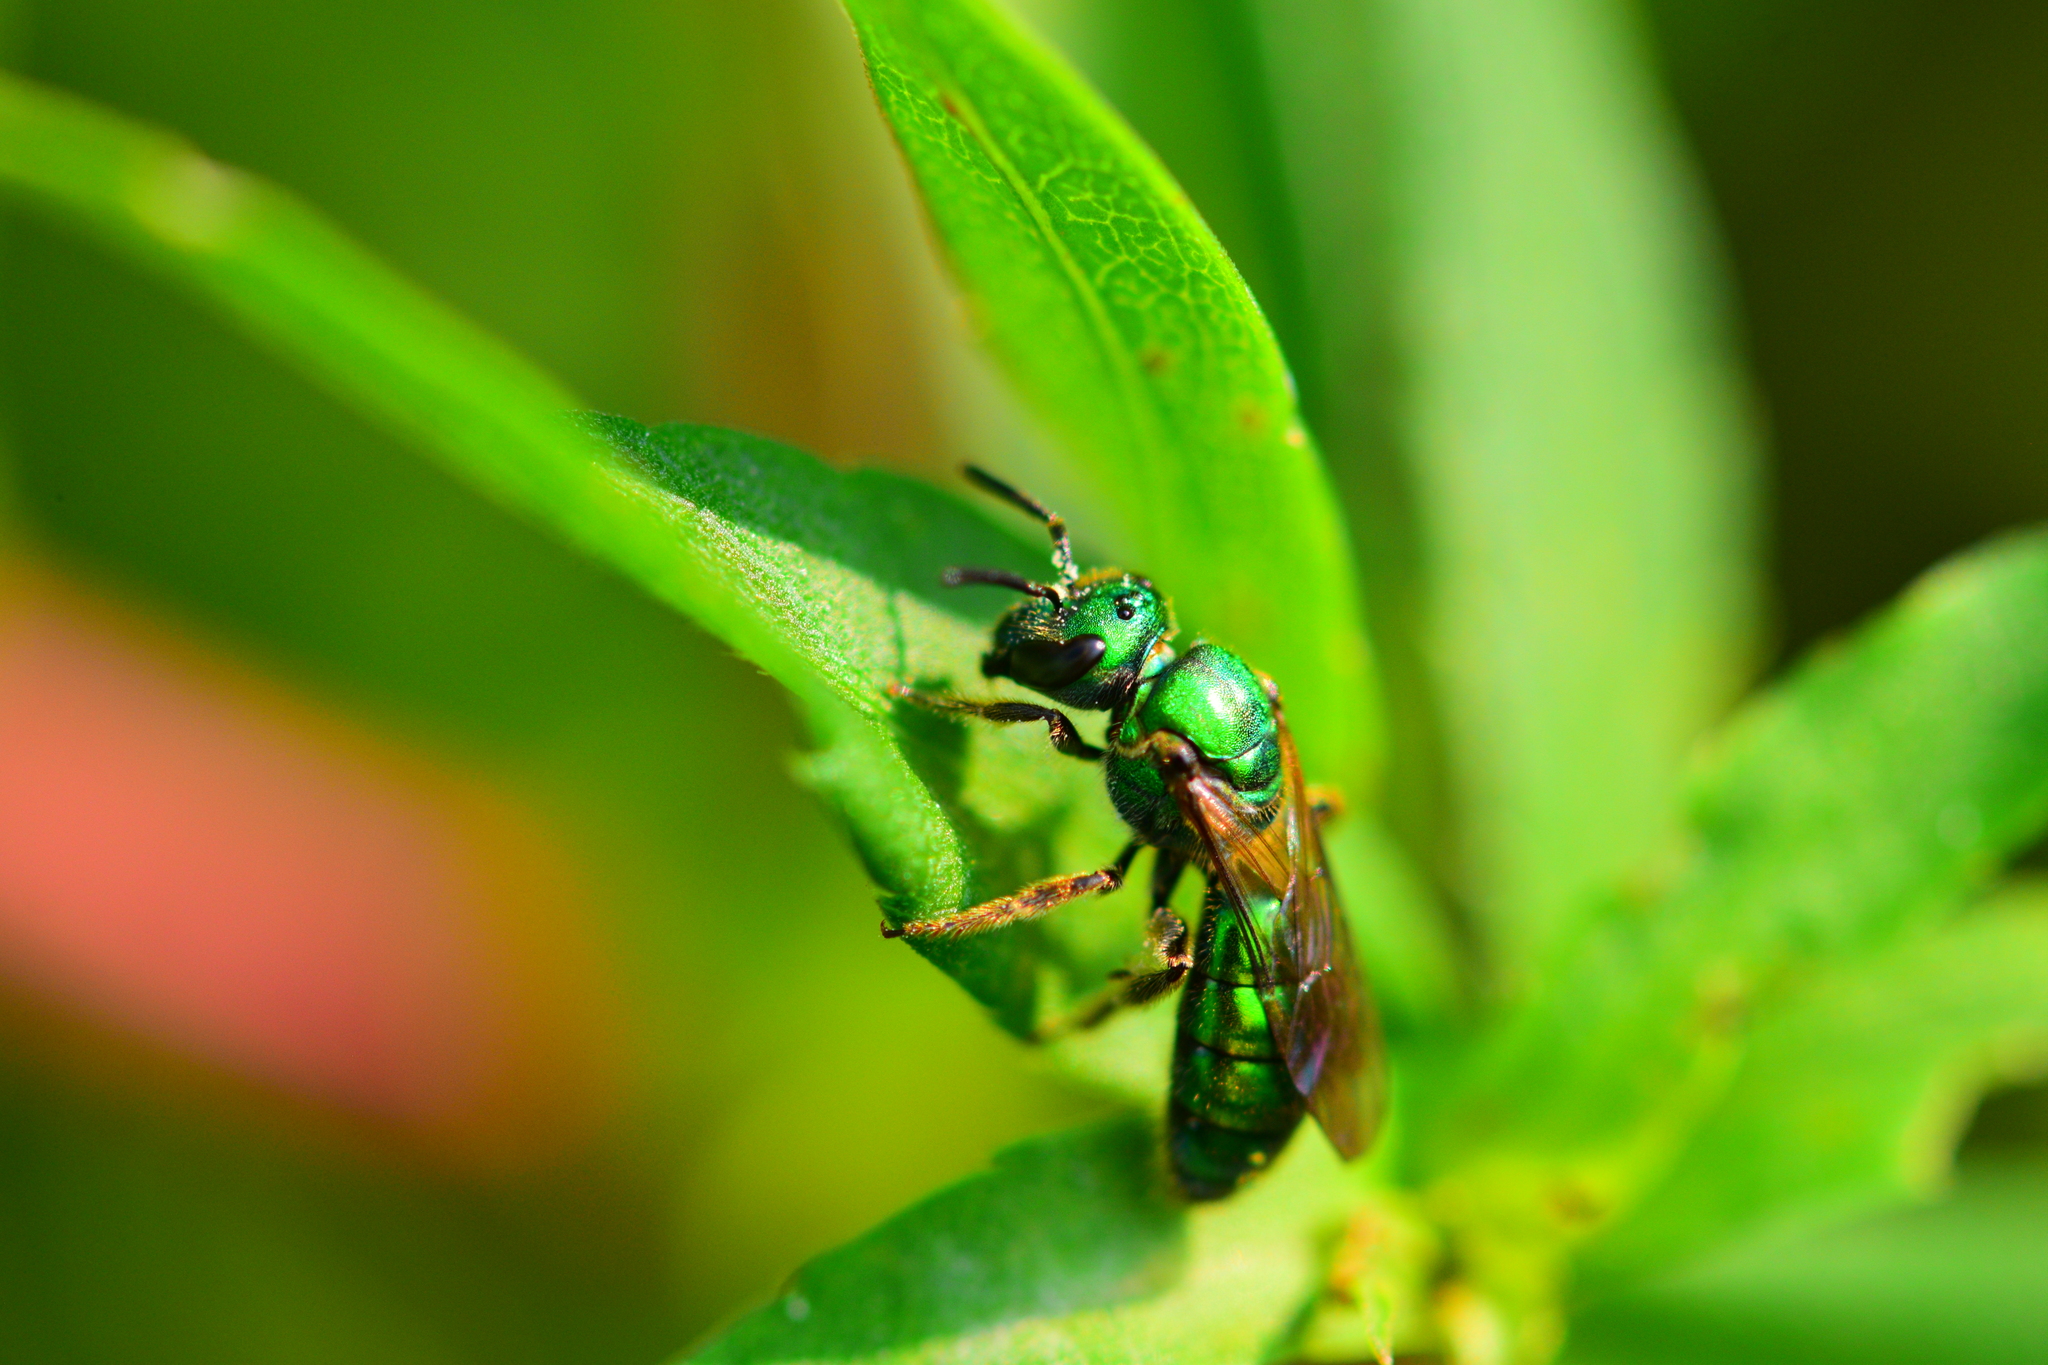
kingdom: Animalia
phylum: Arthropoda
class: Insecta
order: Hymenoptera
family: Halictidae
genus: Augochlora
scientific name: Augochlora pura
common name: Pure green sweat bee
